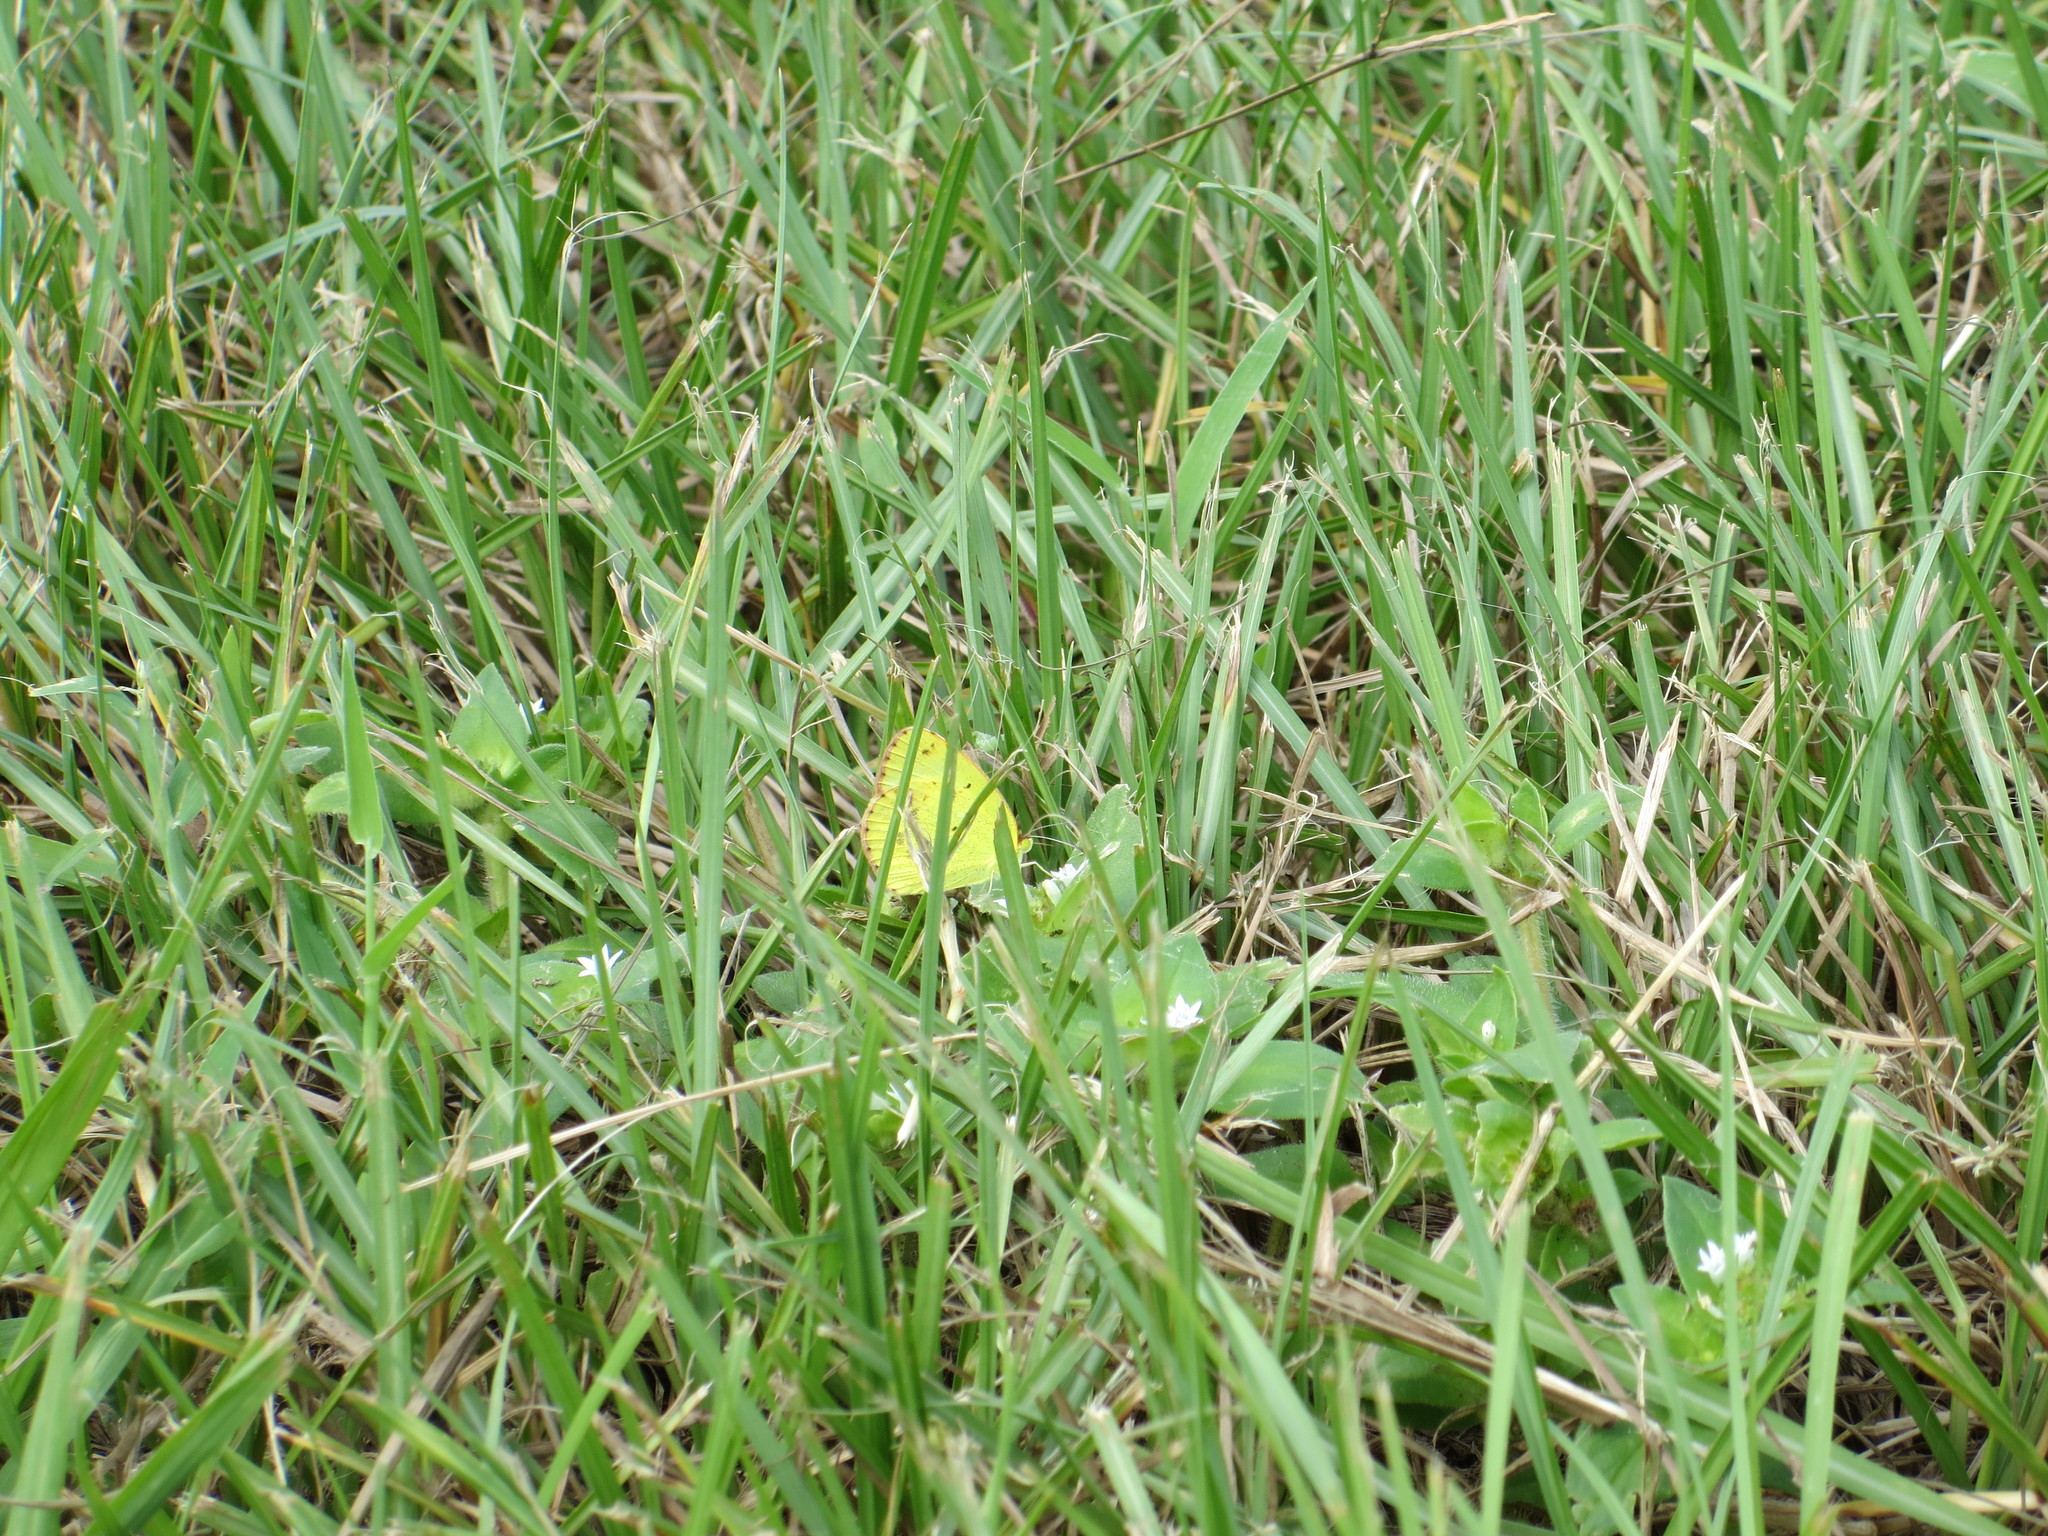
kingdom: Animalia
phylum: Arthropoda
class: Insecta
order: Lepidoptera
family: Pieridae
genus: Pyrisitia
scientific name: Pyrisitia lisa
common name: Little yellow
